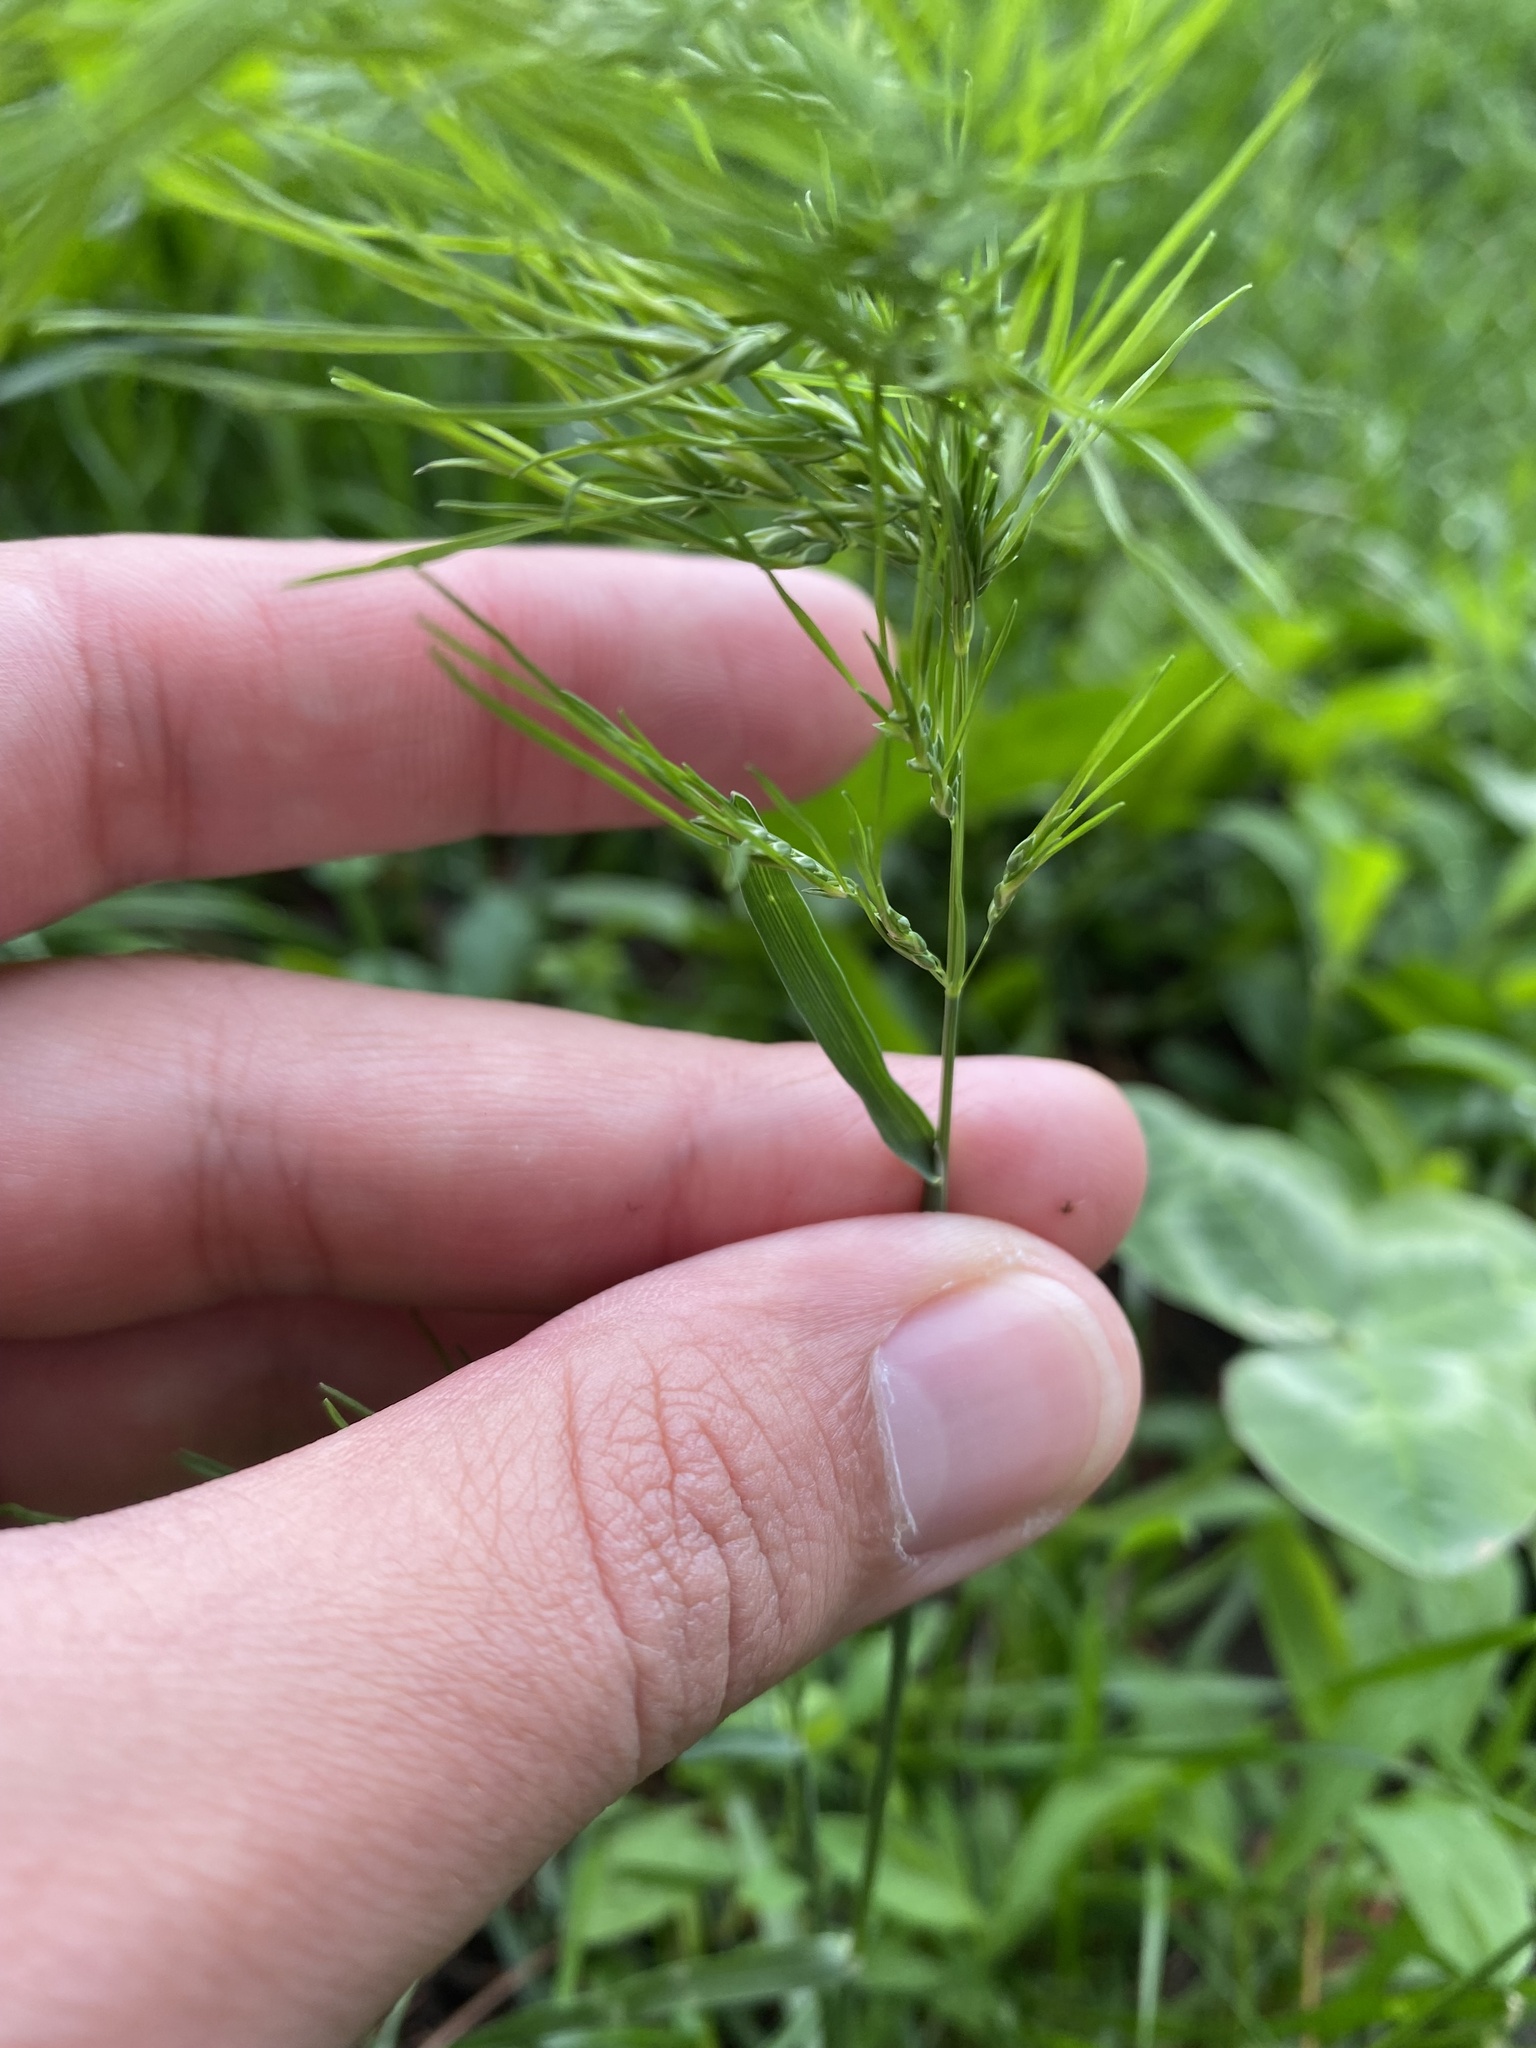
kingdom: Plantae
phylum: Tracheophyta
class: Liliopsida
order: Poales
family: Poaceae
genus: Poa
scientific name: Poa bulbosa
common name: Bulbous bluegrass
